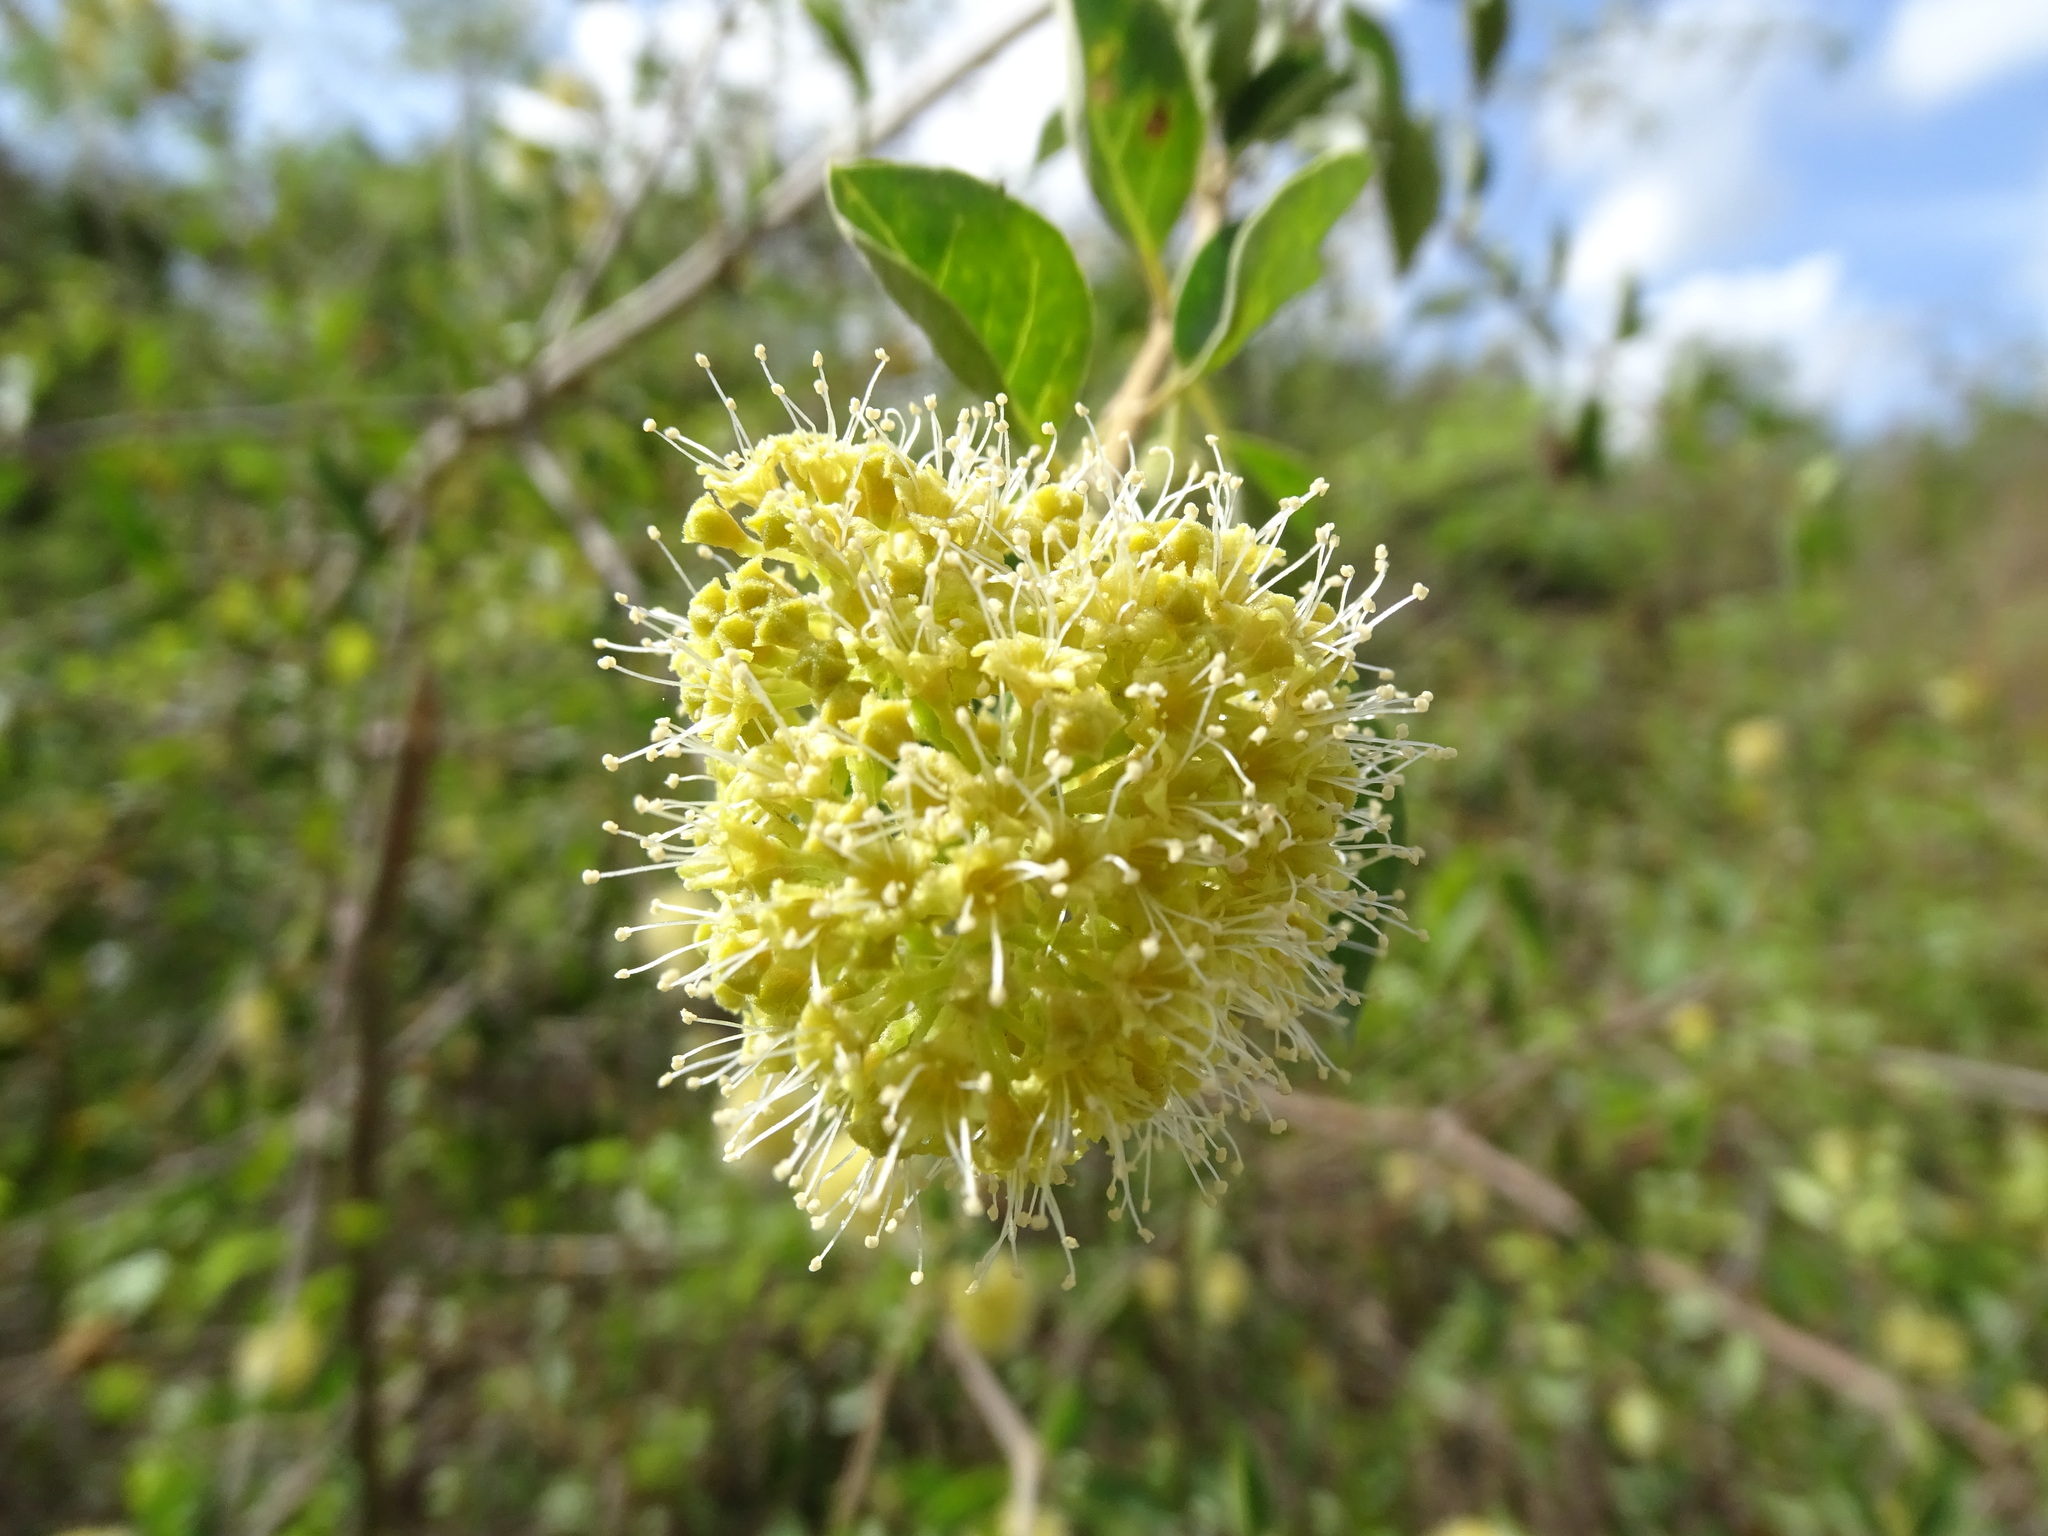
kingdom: Plantae
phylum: Tracheophyta
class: Magnoliopsida
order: Caryophyllales
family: Nyctaginaceae
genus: Pisonia
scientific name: Pisonia aculeata
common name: Cockspur vine
